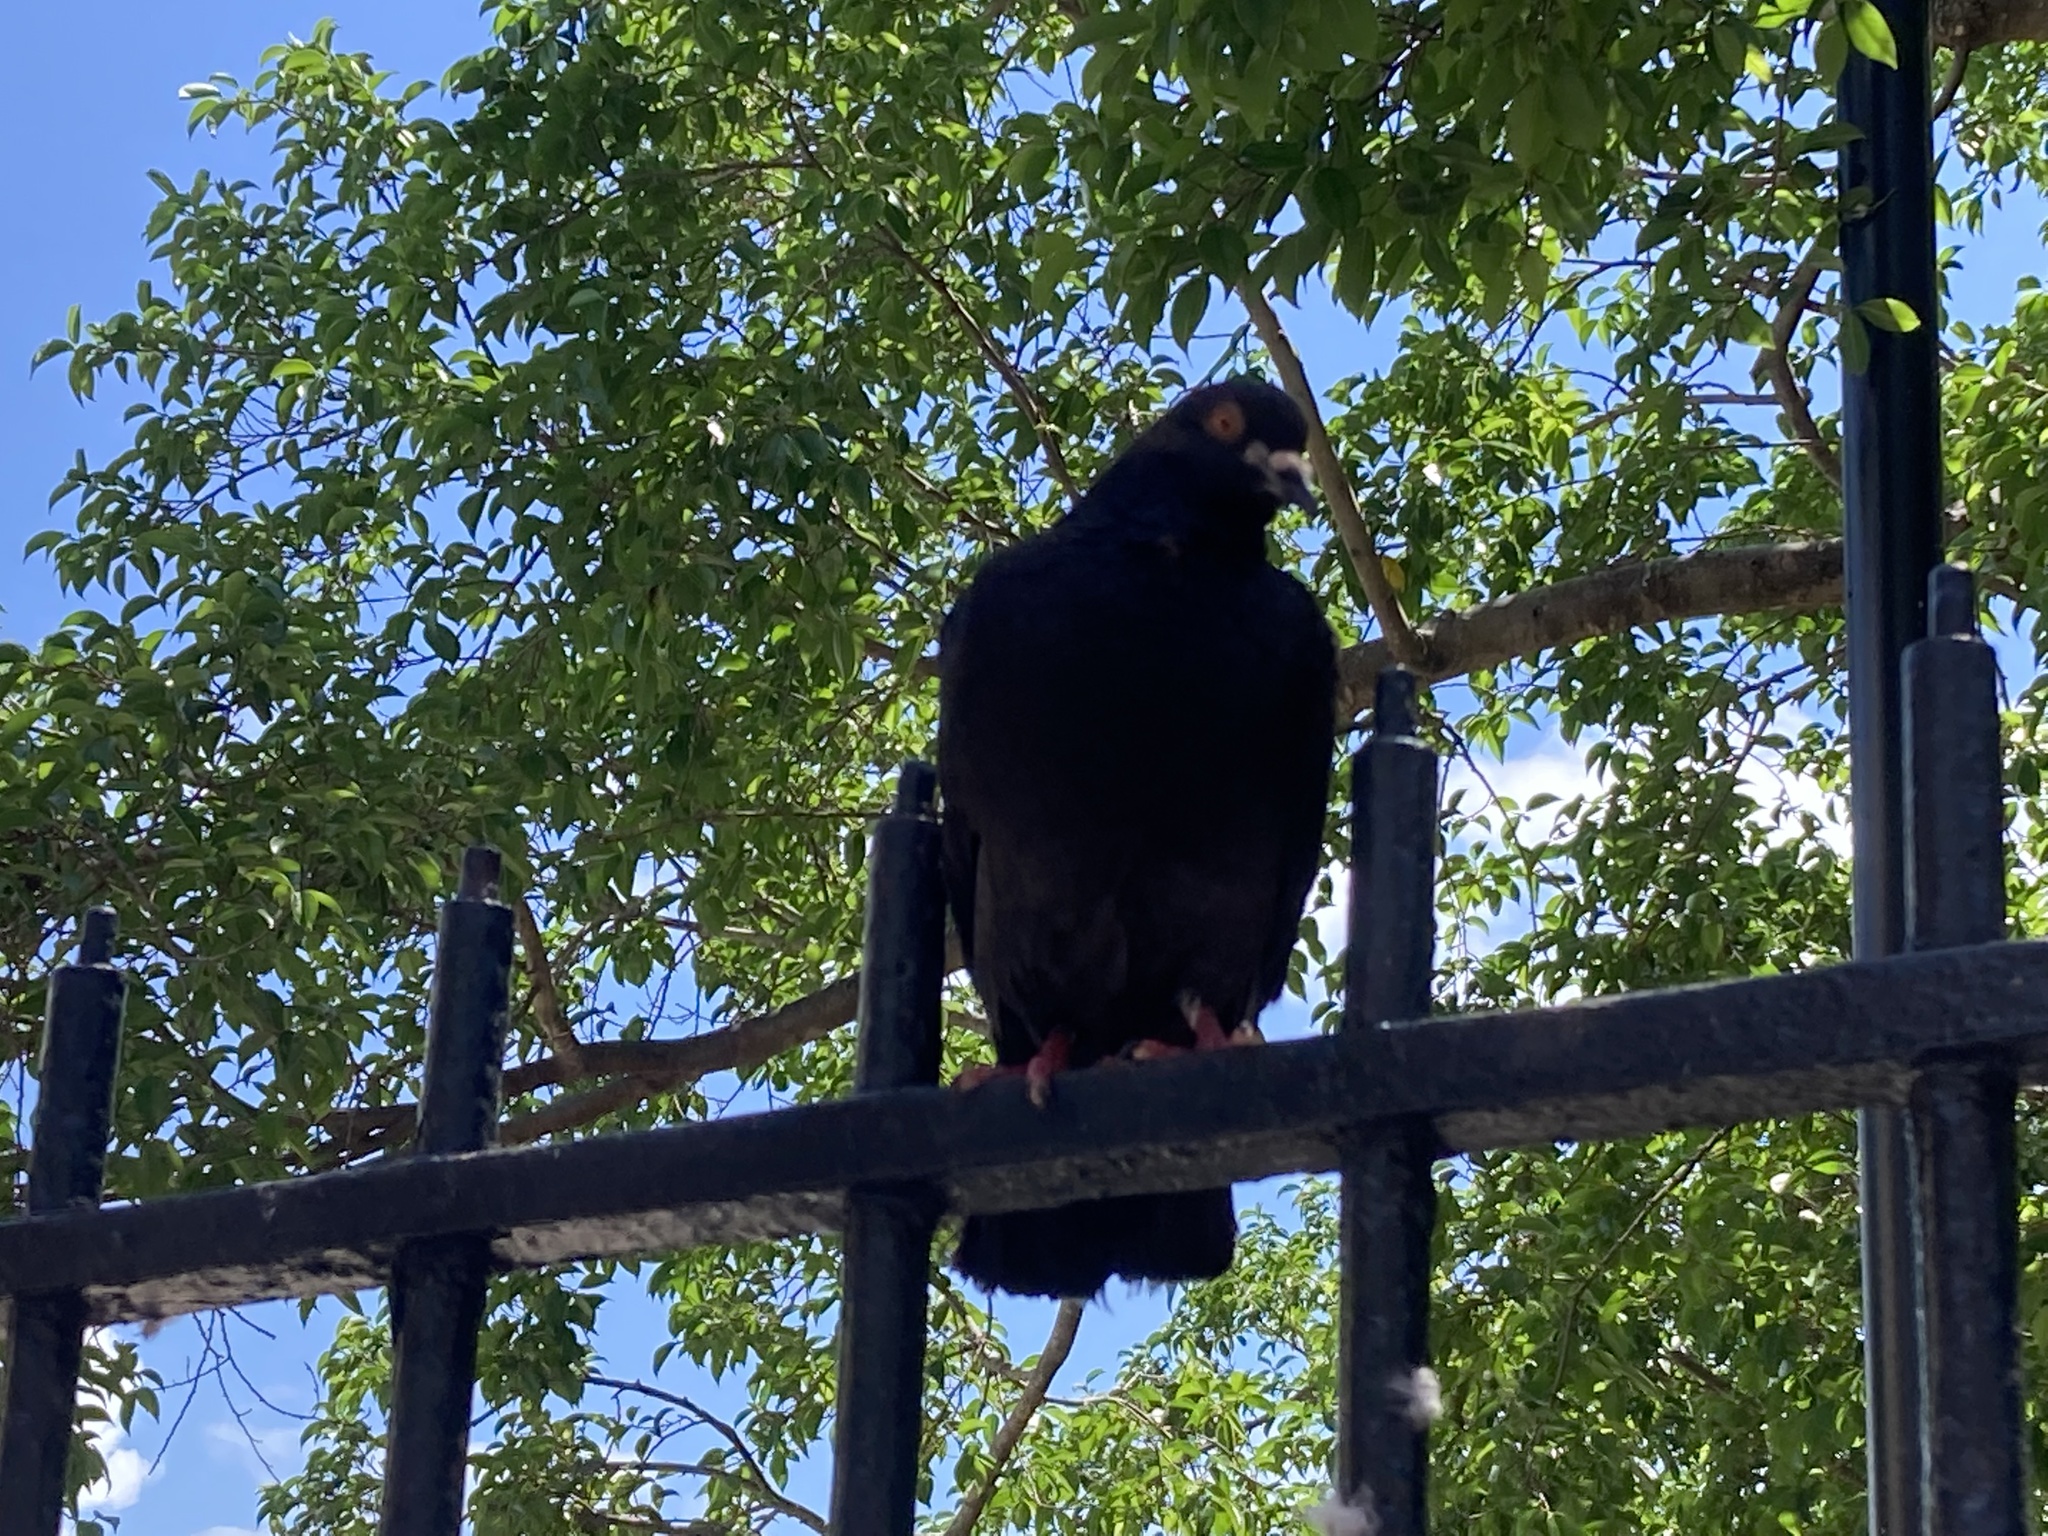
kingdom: Animalia
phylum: Chordata
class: Aves
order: Columbiformes
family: Columbidae
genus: Columba
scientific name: Columba livia
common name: Rock pigeon
